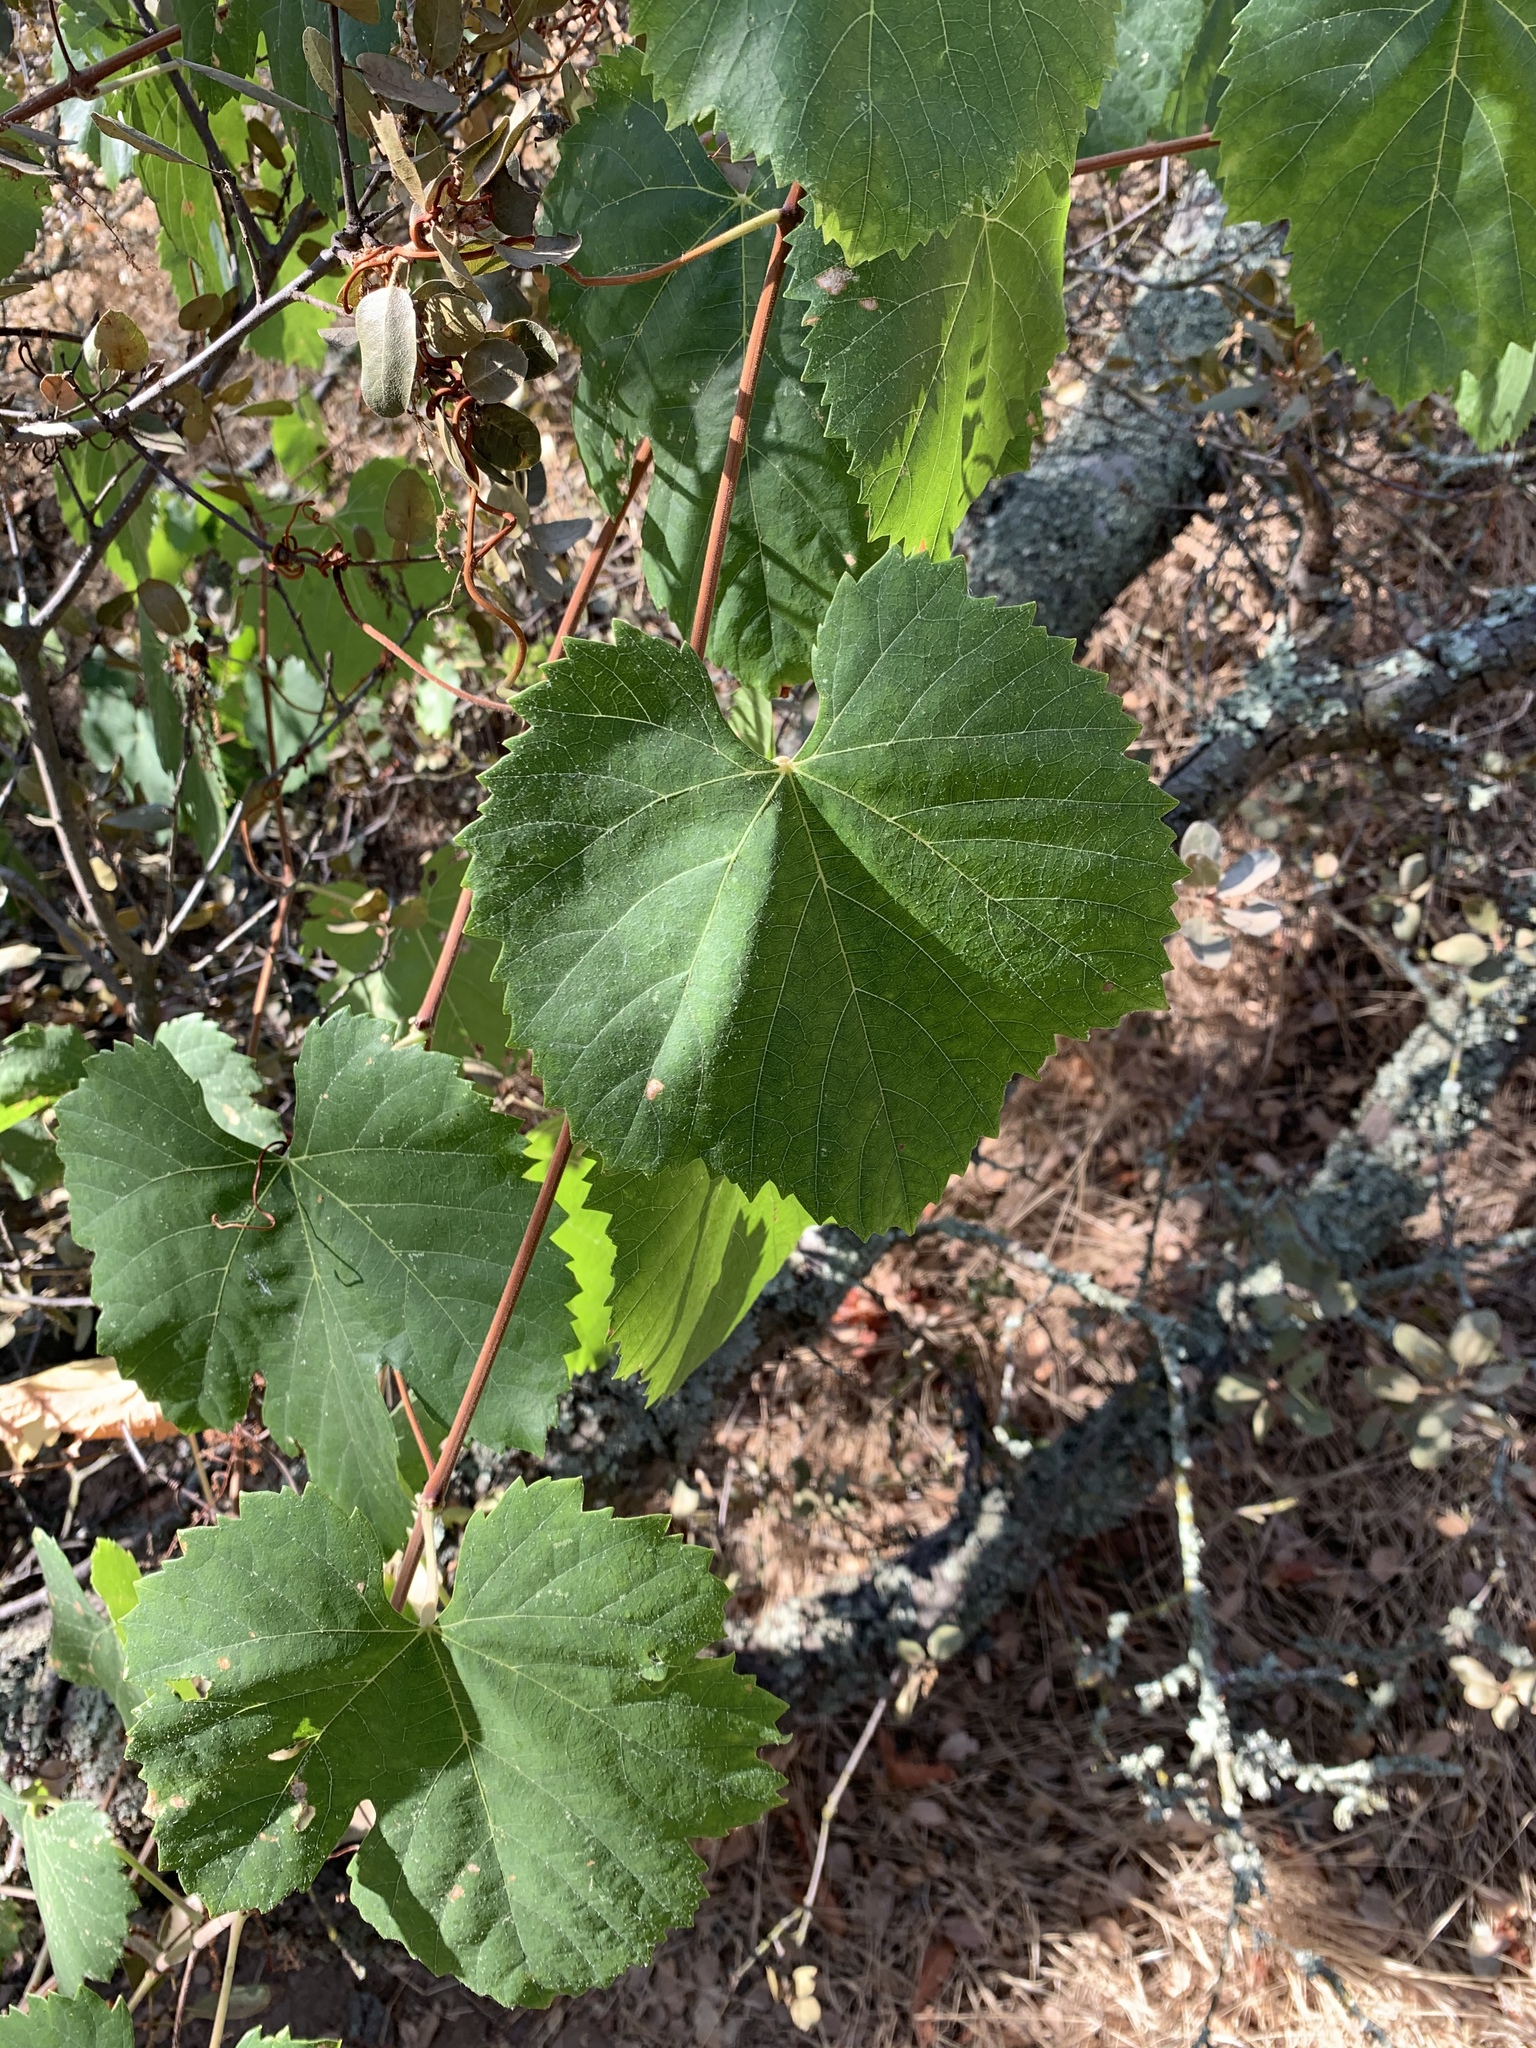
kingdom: Plantae
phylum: Tracheophyta
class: Magnoliopsida
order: Vitales
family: Vitaceae
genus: Vitis
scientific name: Vitis californica
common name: California wild grape
